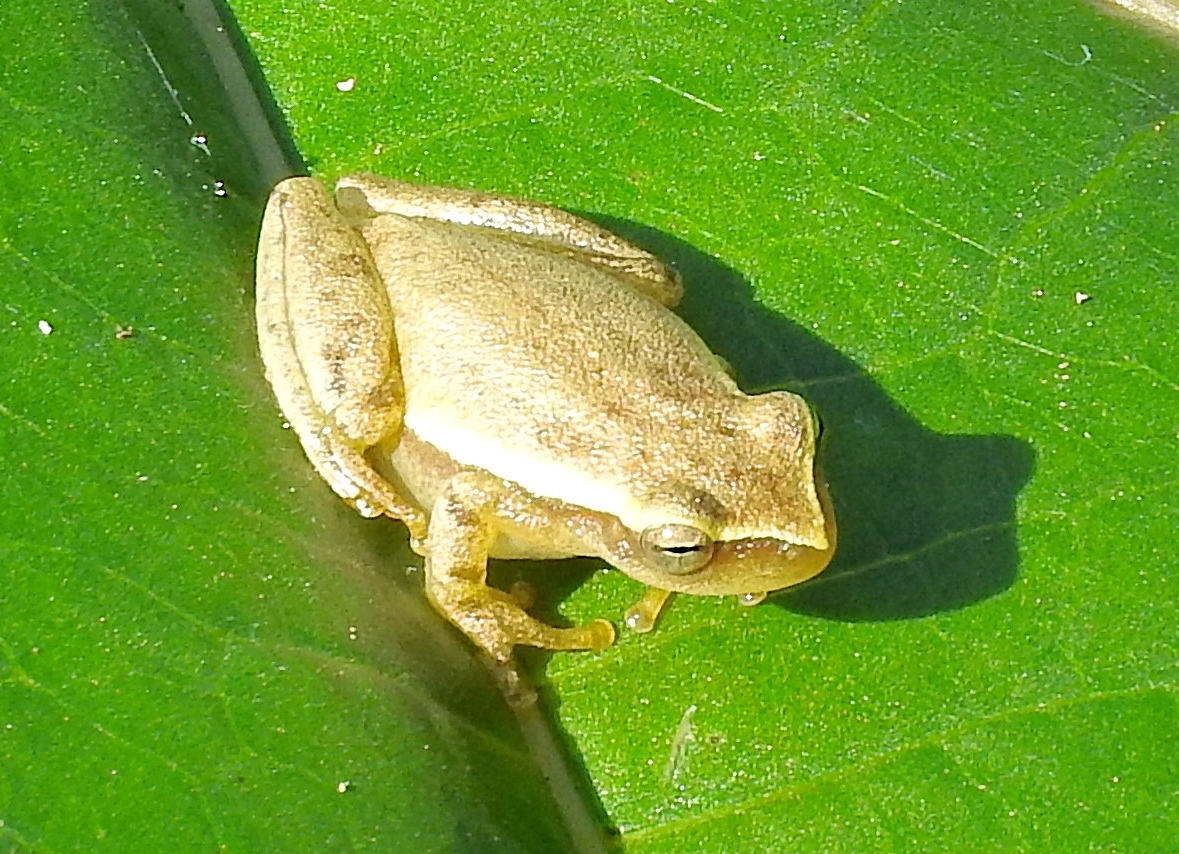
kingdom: Animalia
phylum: Chordata
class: Amphibia
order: Anura
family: Hylidae
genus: Tlalocohyla
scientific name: Tlalocohyla smithii
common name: Dwarf mexican treefrog
